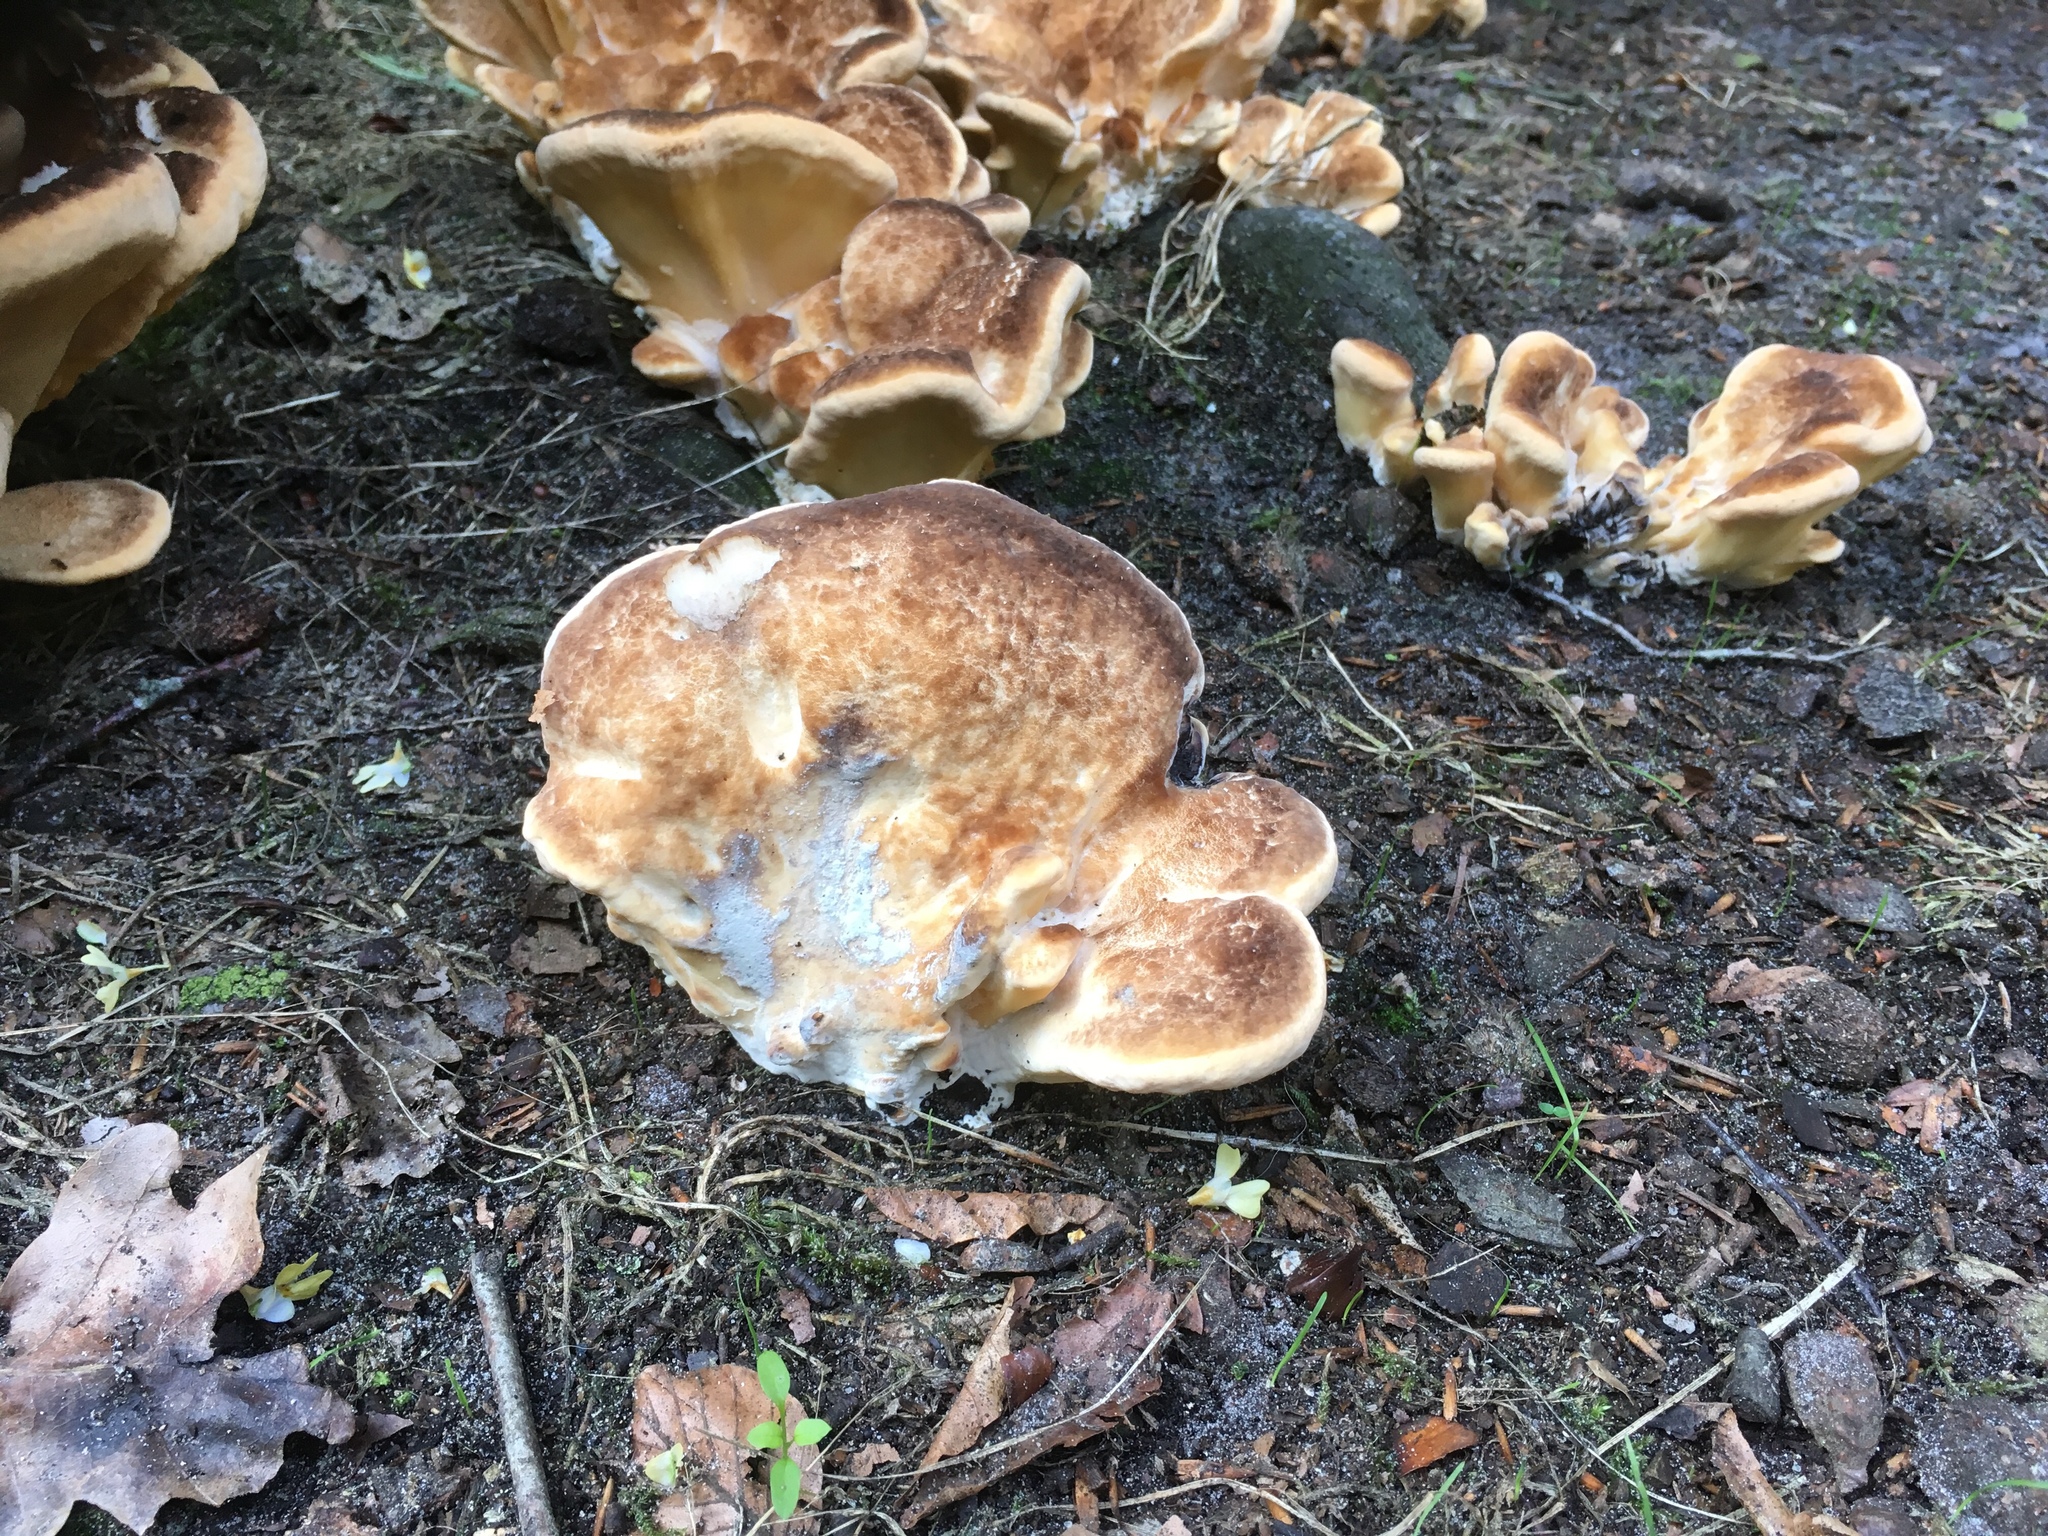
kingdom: Fungi
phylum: Basidiomycota
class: Agaricomycetes
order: Polyporales
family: Meripilaceae
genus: Meripilus
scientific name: Meripilus giganteus
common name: Giant polypore
